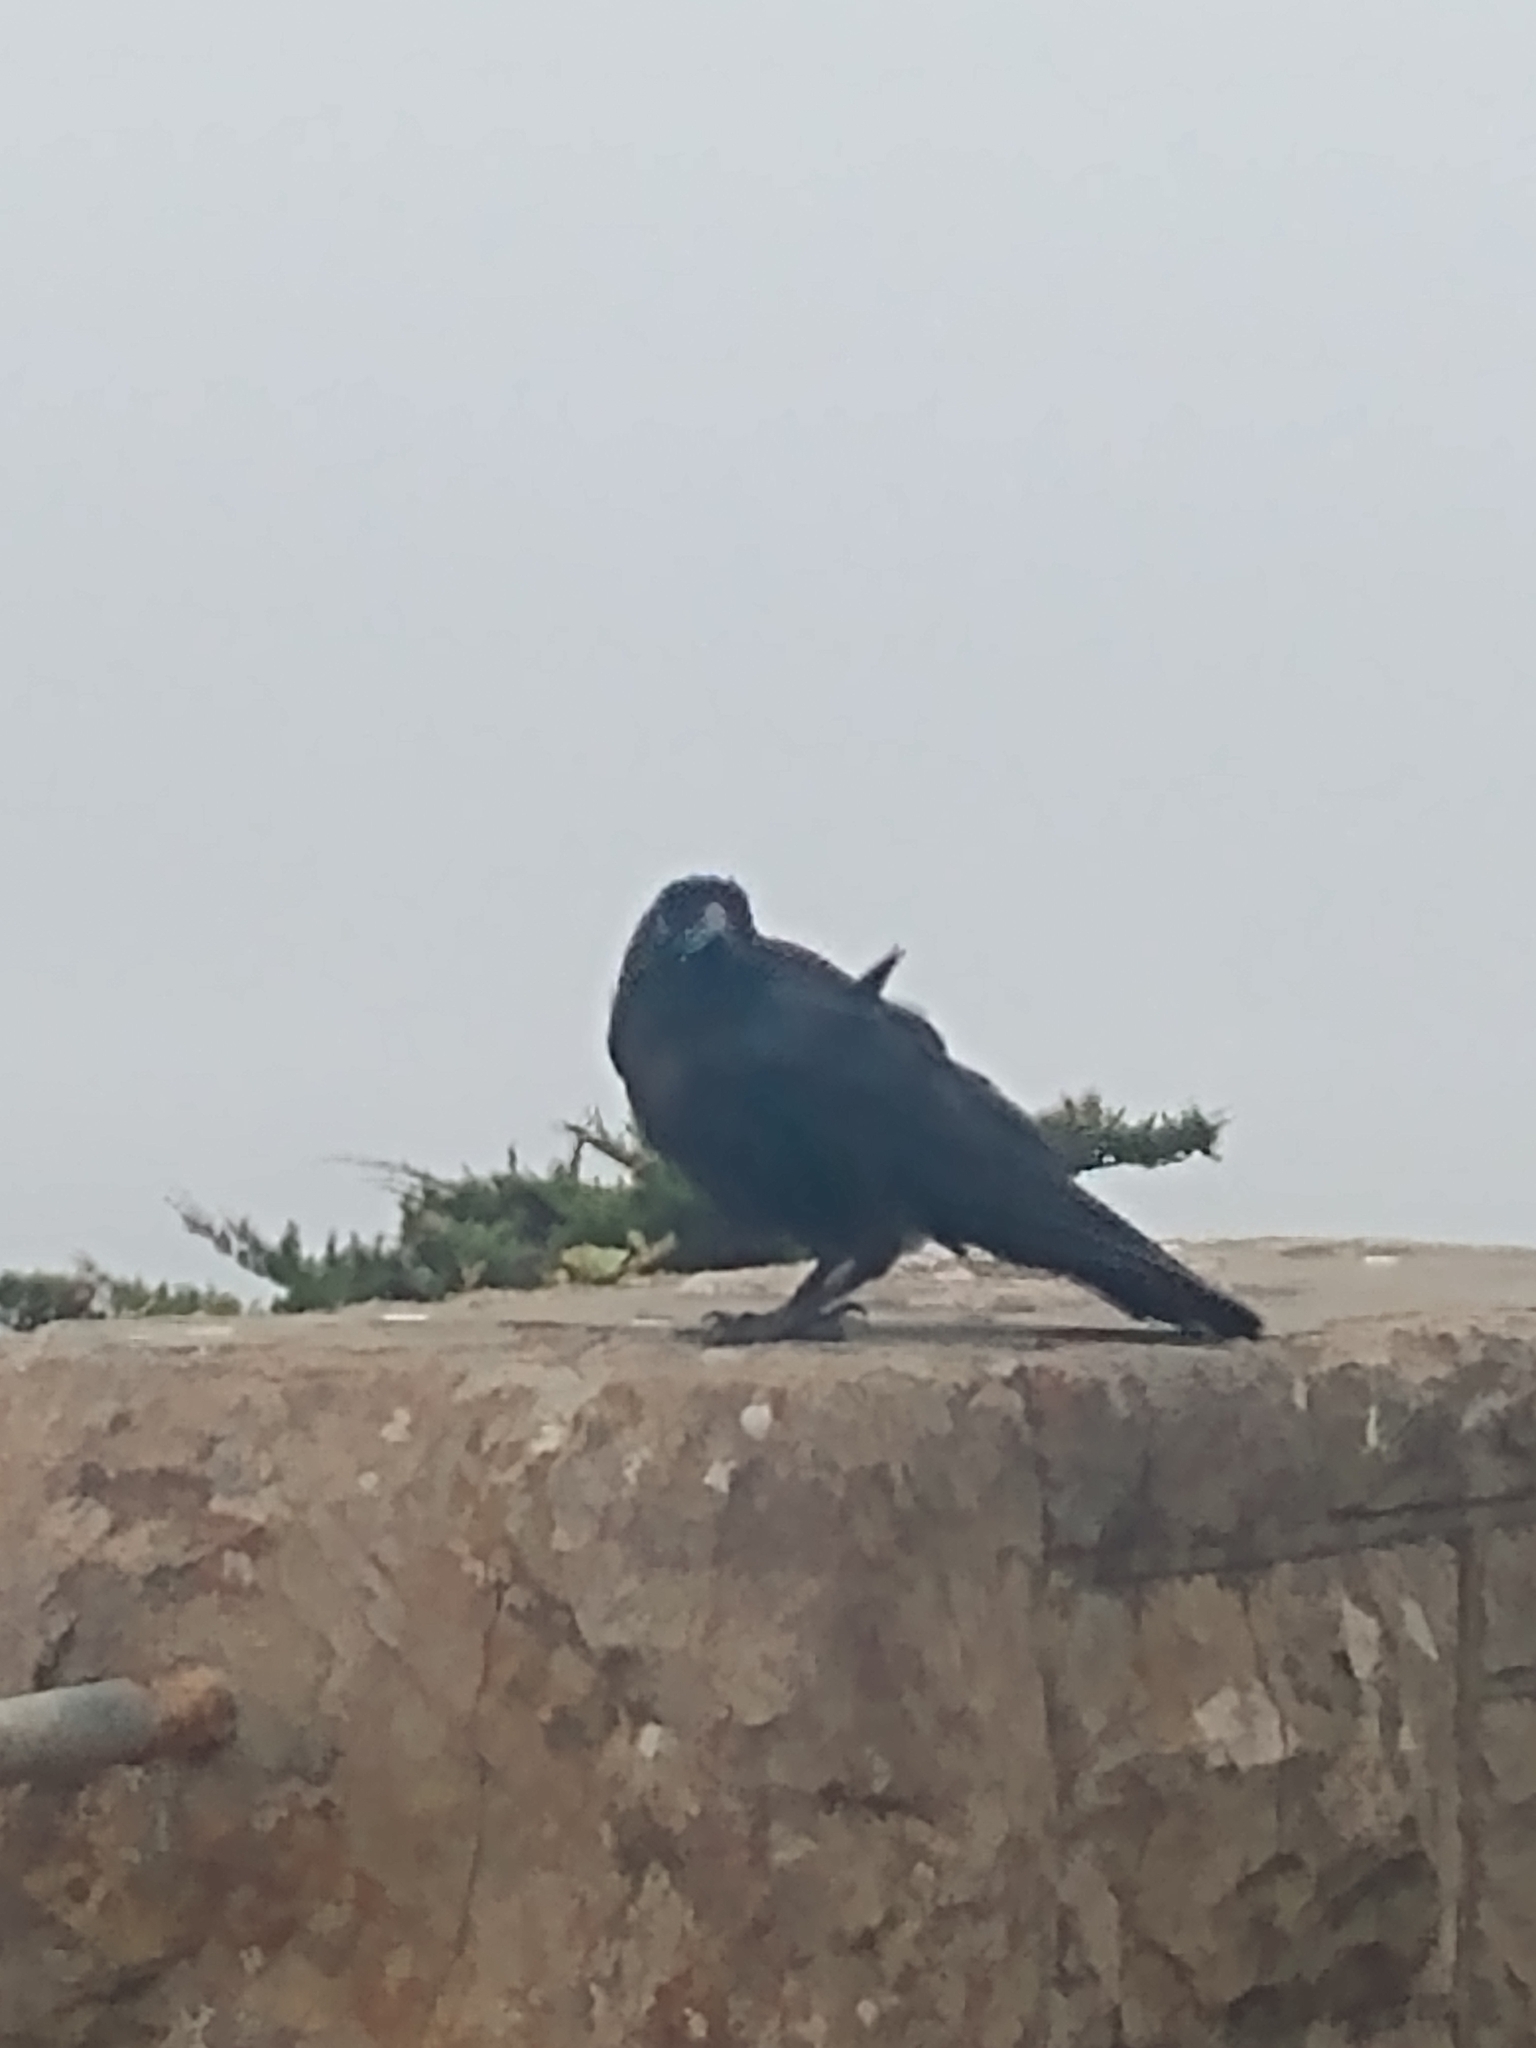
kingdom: Animalia
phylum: Chordata
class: Aves
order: Passeriformes
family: Corvidae
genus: Corvus
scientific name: Corvus corax
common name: Common raven
